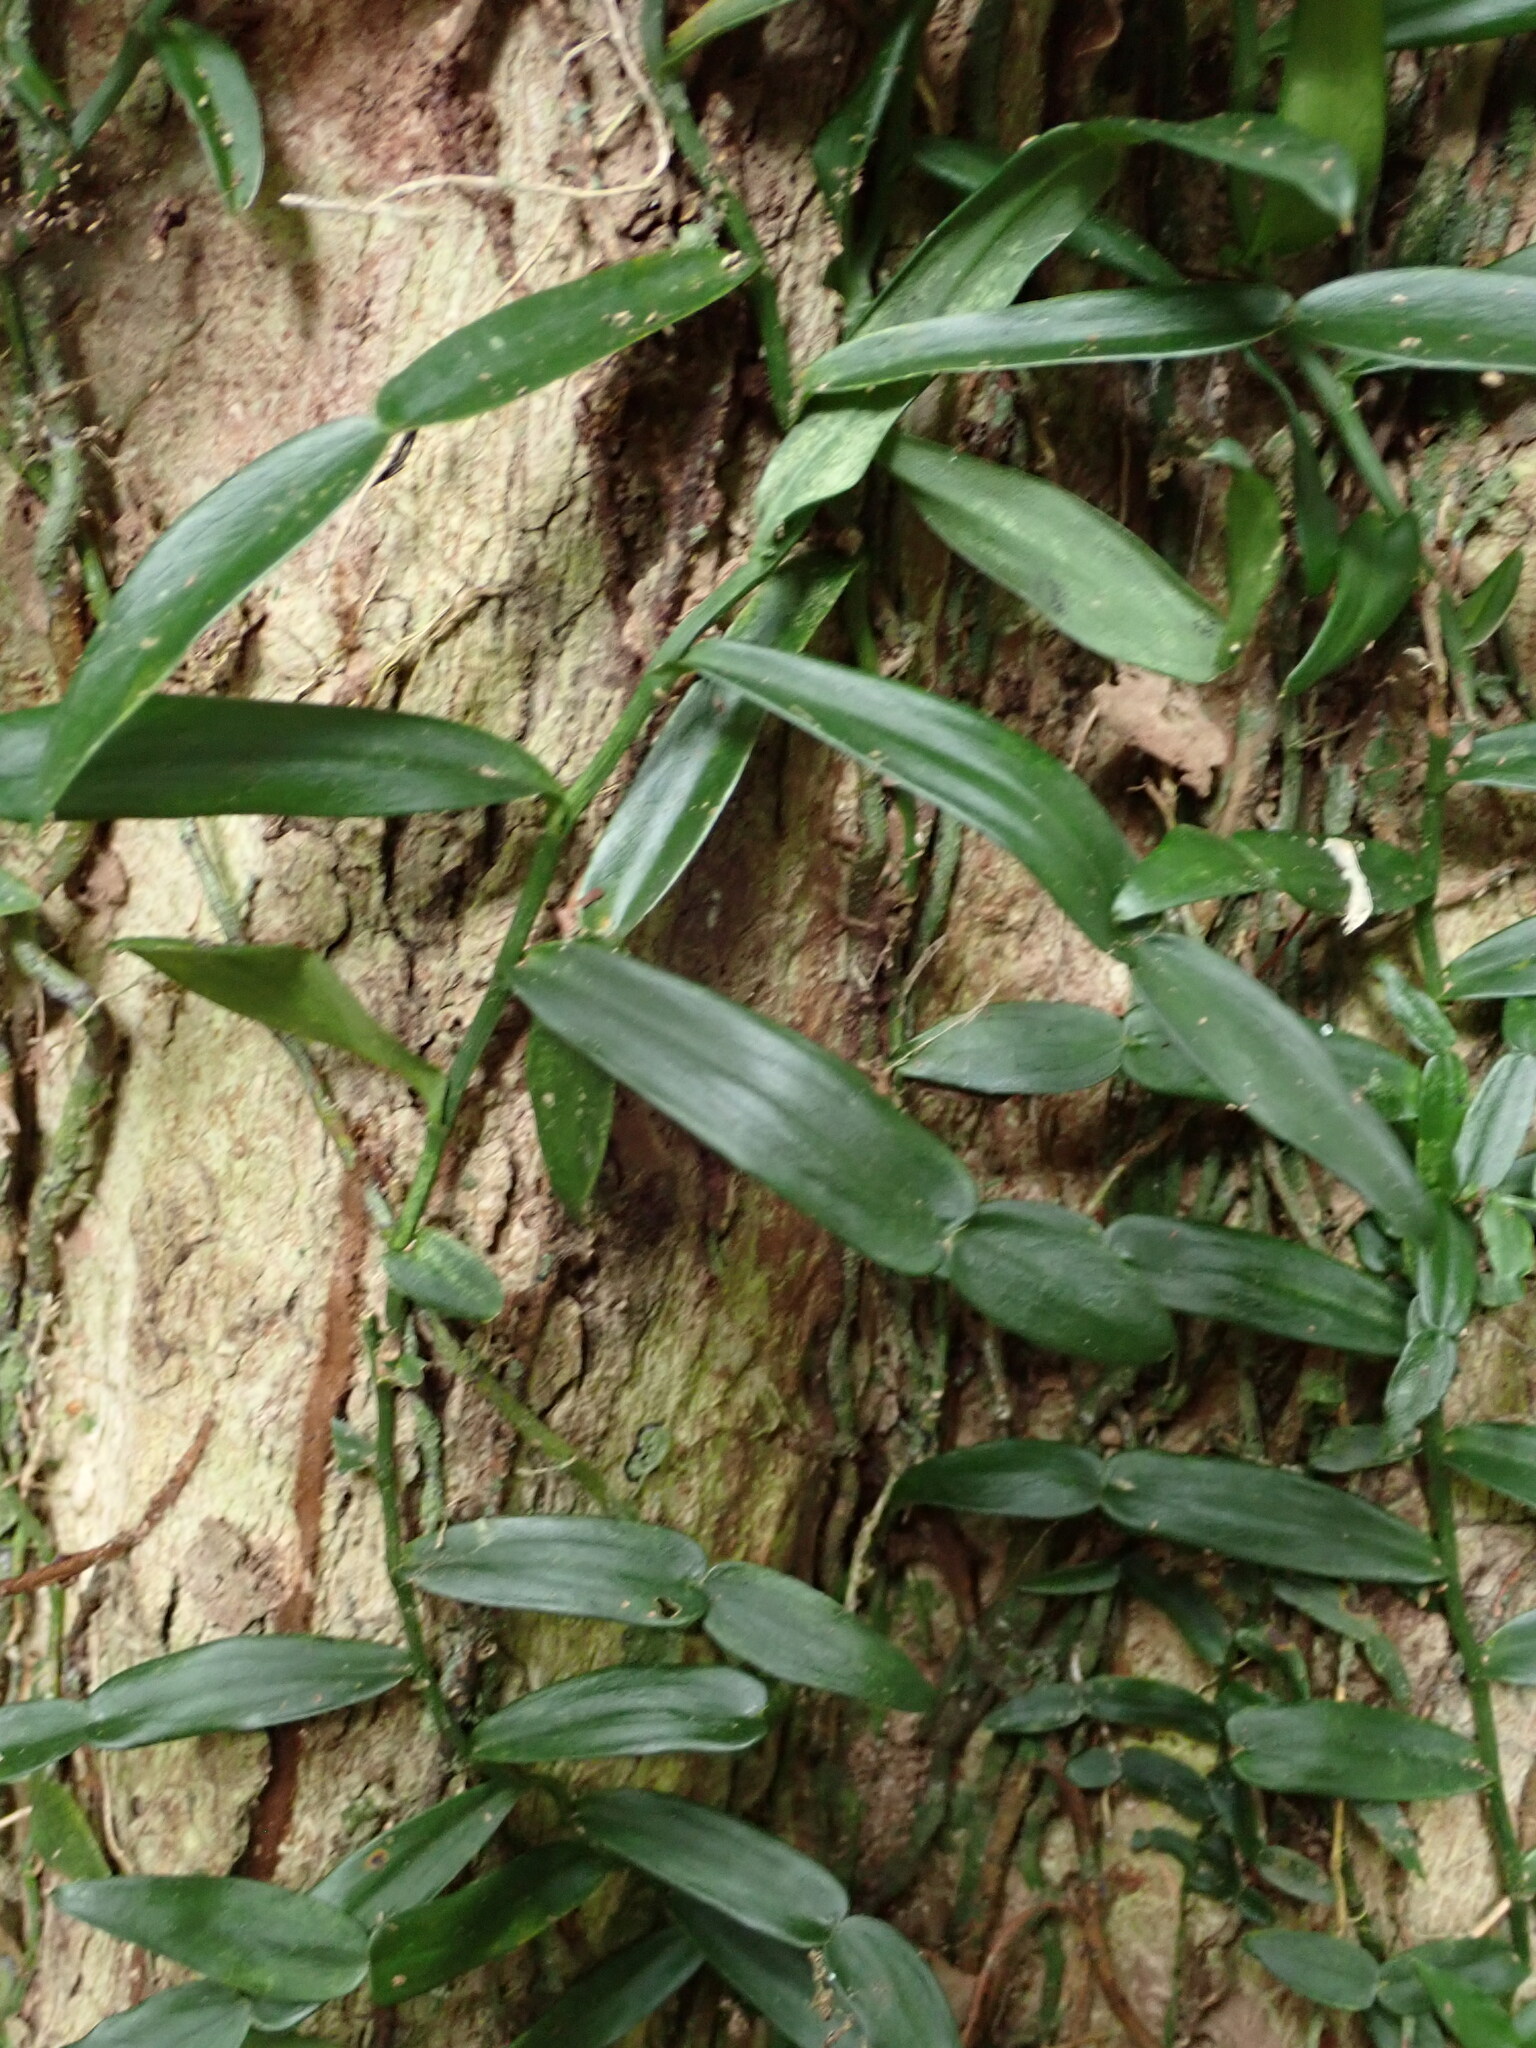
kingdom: Plantae
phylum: Tracheophyta
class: Liliopsida
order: Alismatales
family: Araceae
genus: Pothos
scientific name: Pothos longipes
